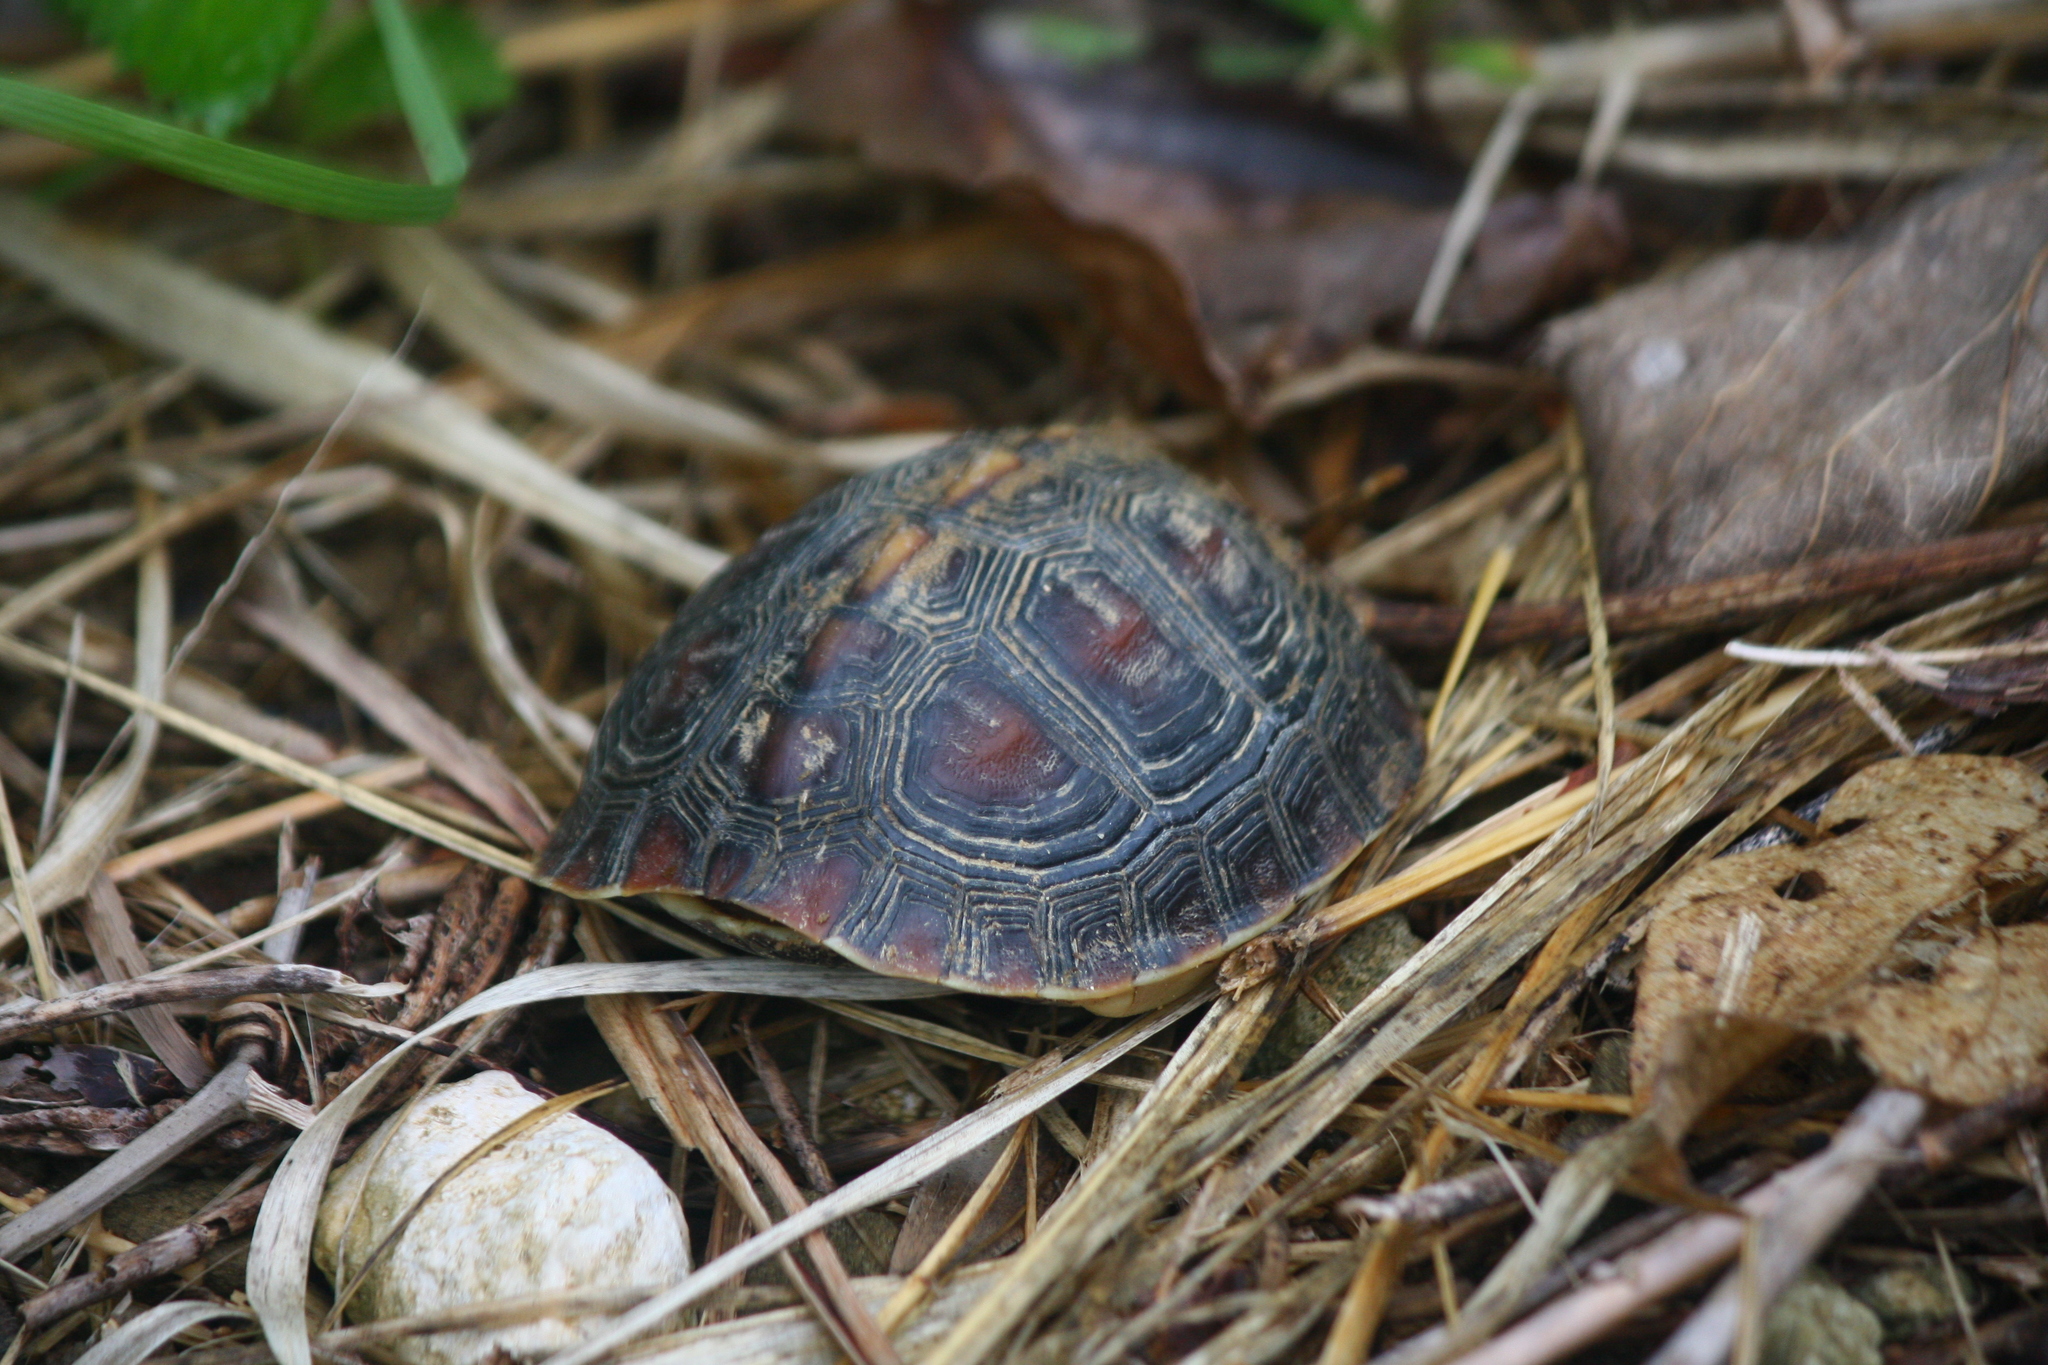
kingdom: Animalia
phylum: Chordata
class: Testudines
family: Geoemydidae
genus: Cuora
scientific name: Cuora flavomarginata
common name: Yellow-margined box turtle
